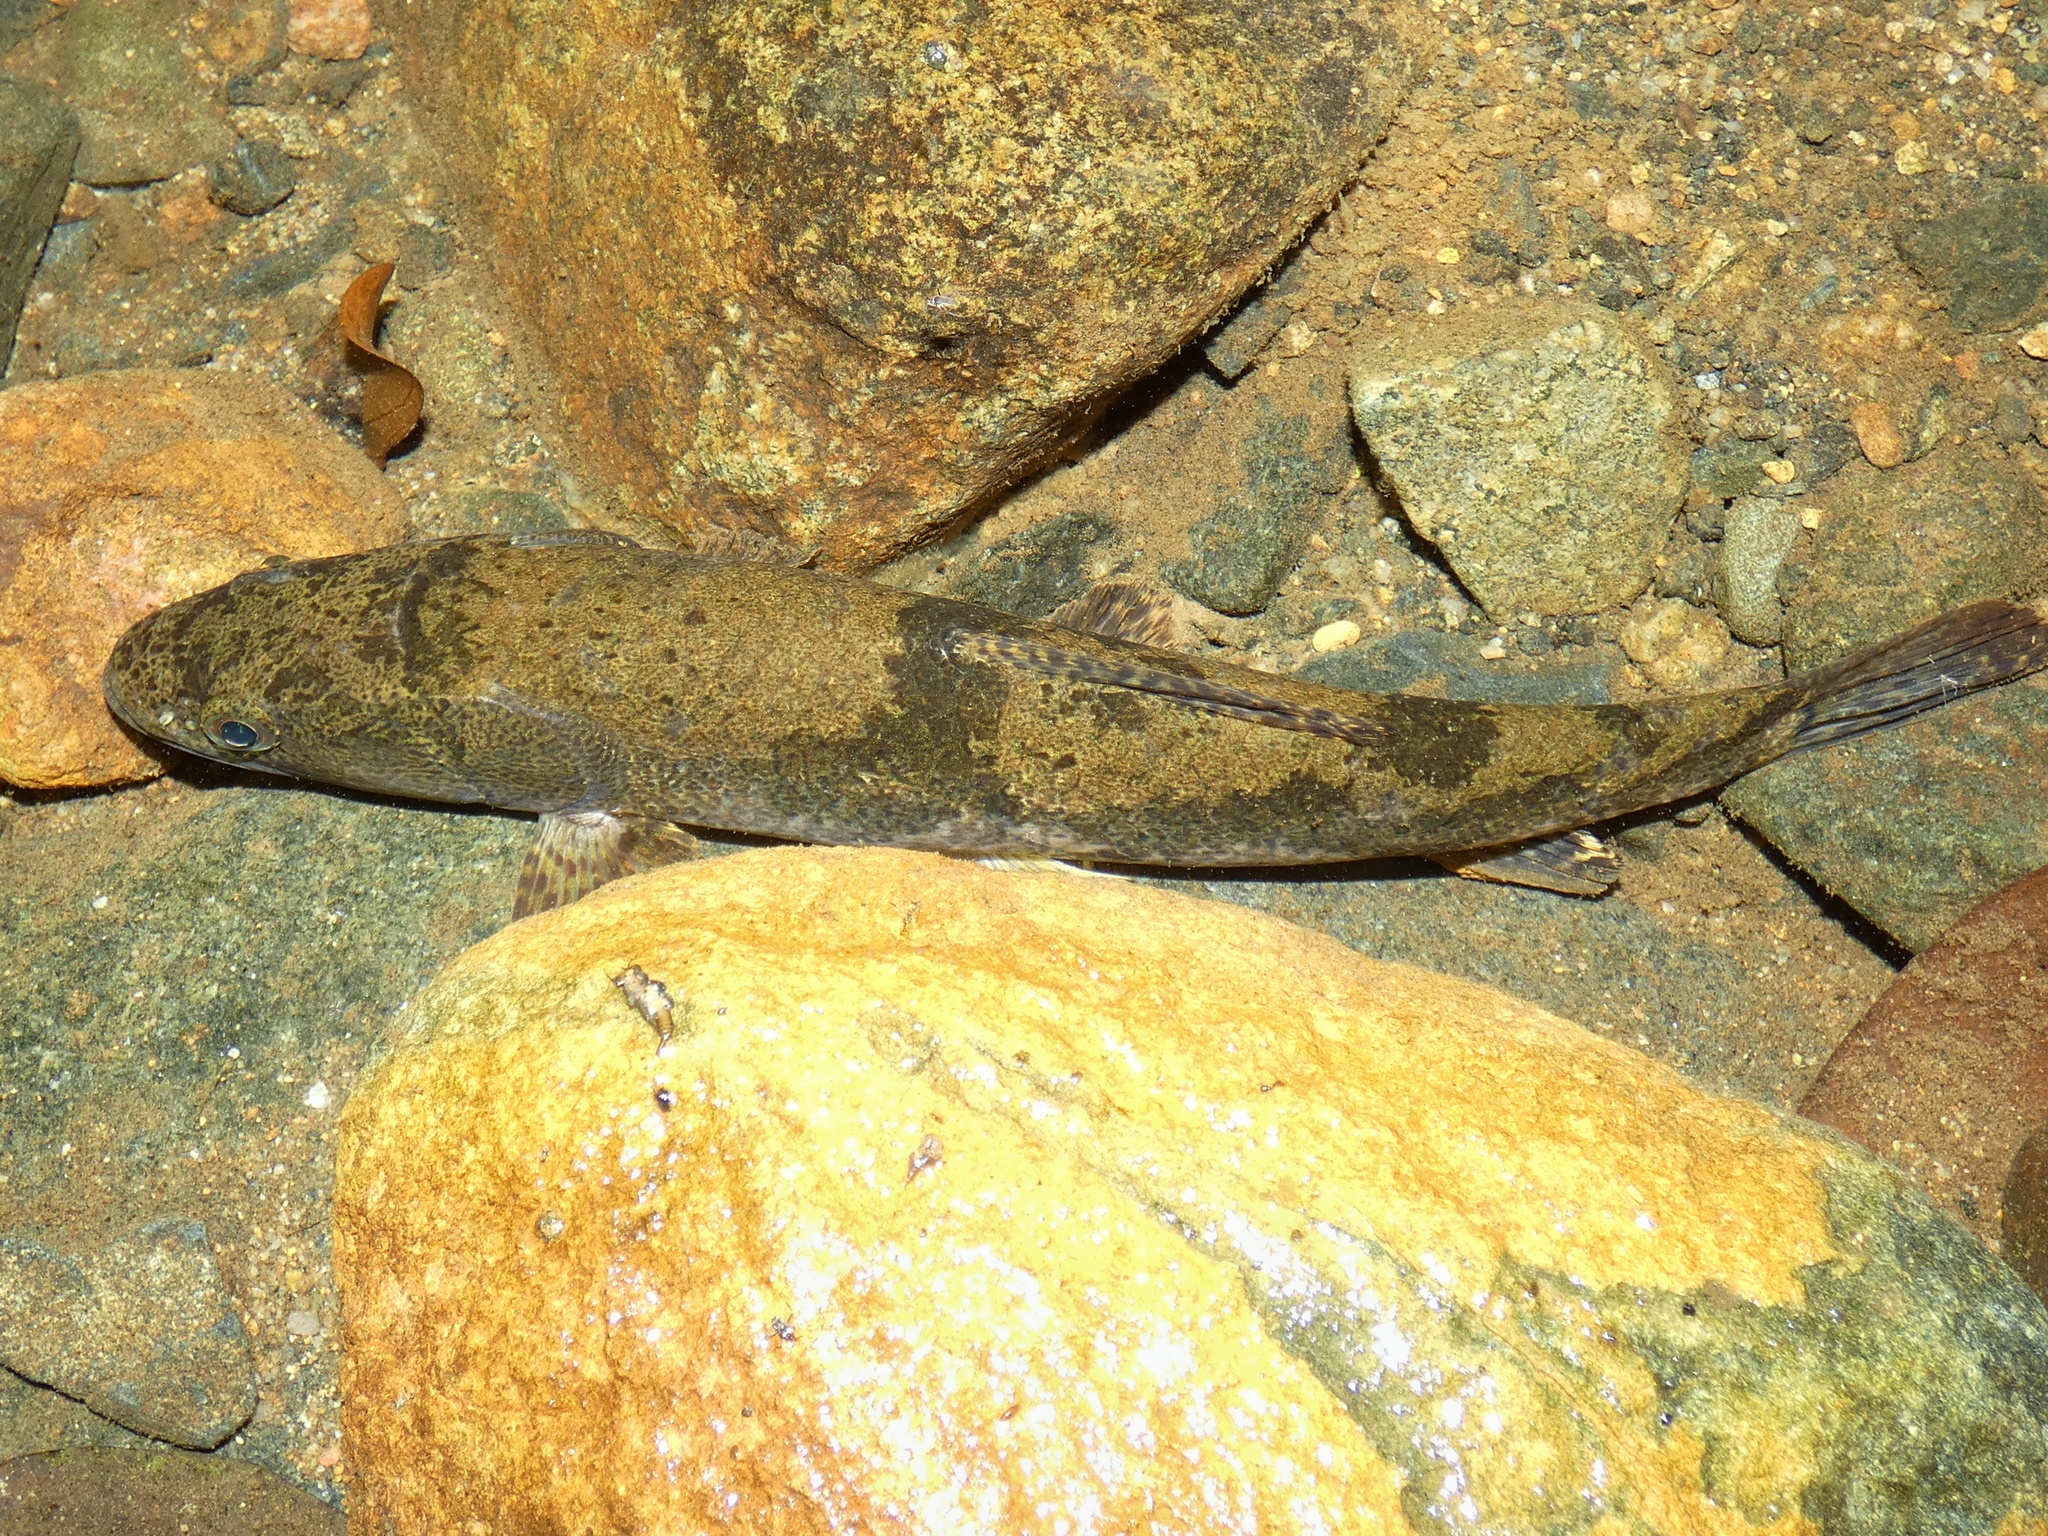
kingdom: Animalia
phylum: Chordata
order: Characiformes
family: Erythrinidae
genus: Hoplias
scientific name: Hoplias microlepis
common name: Tiger fish
